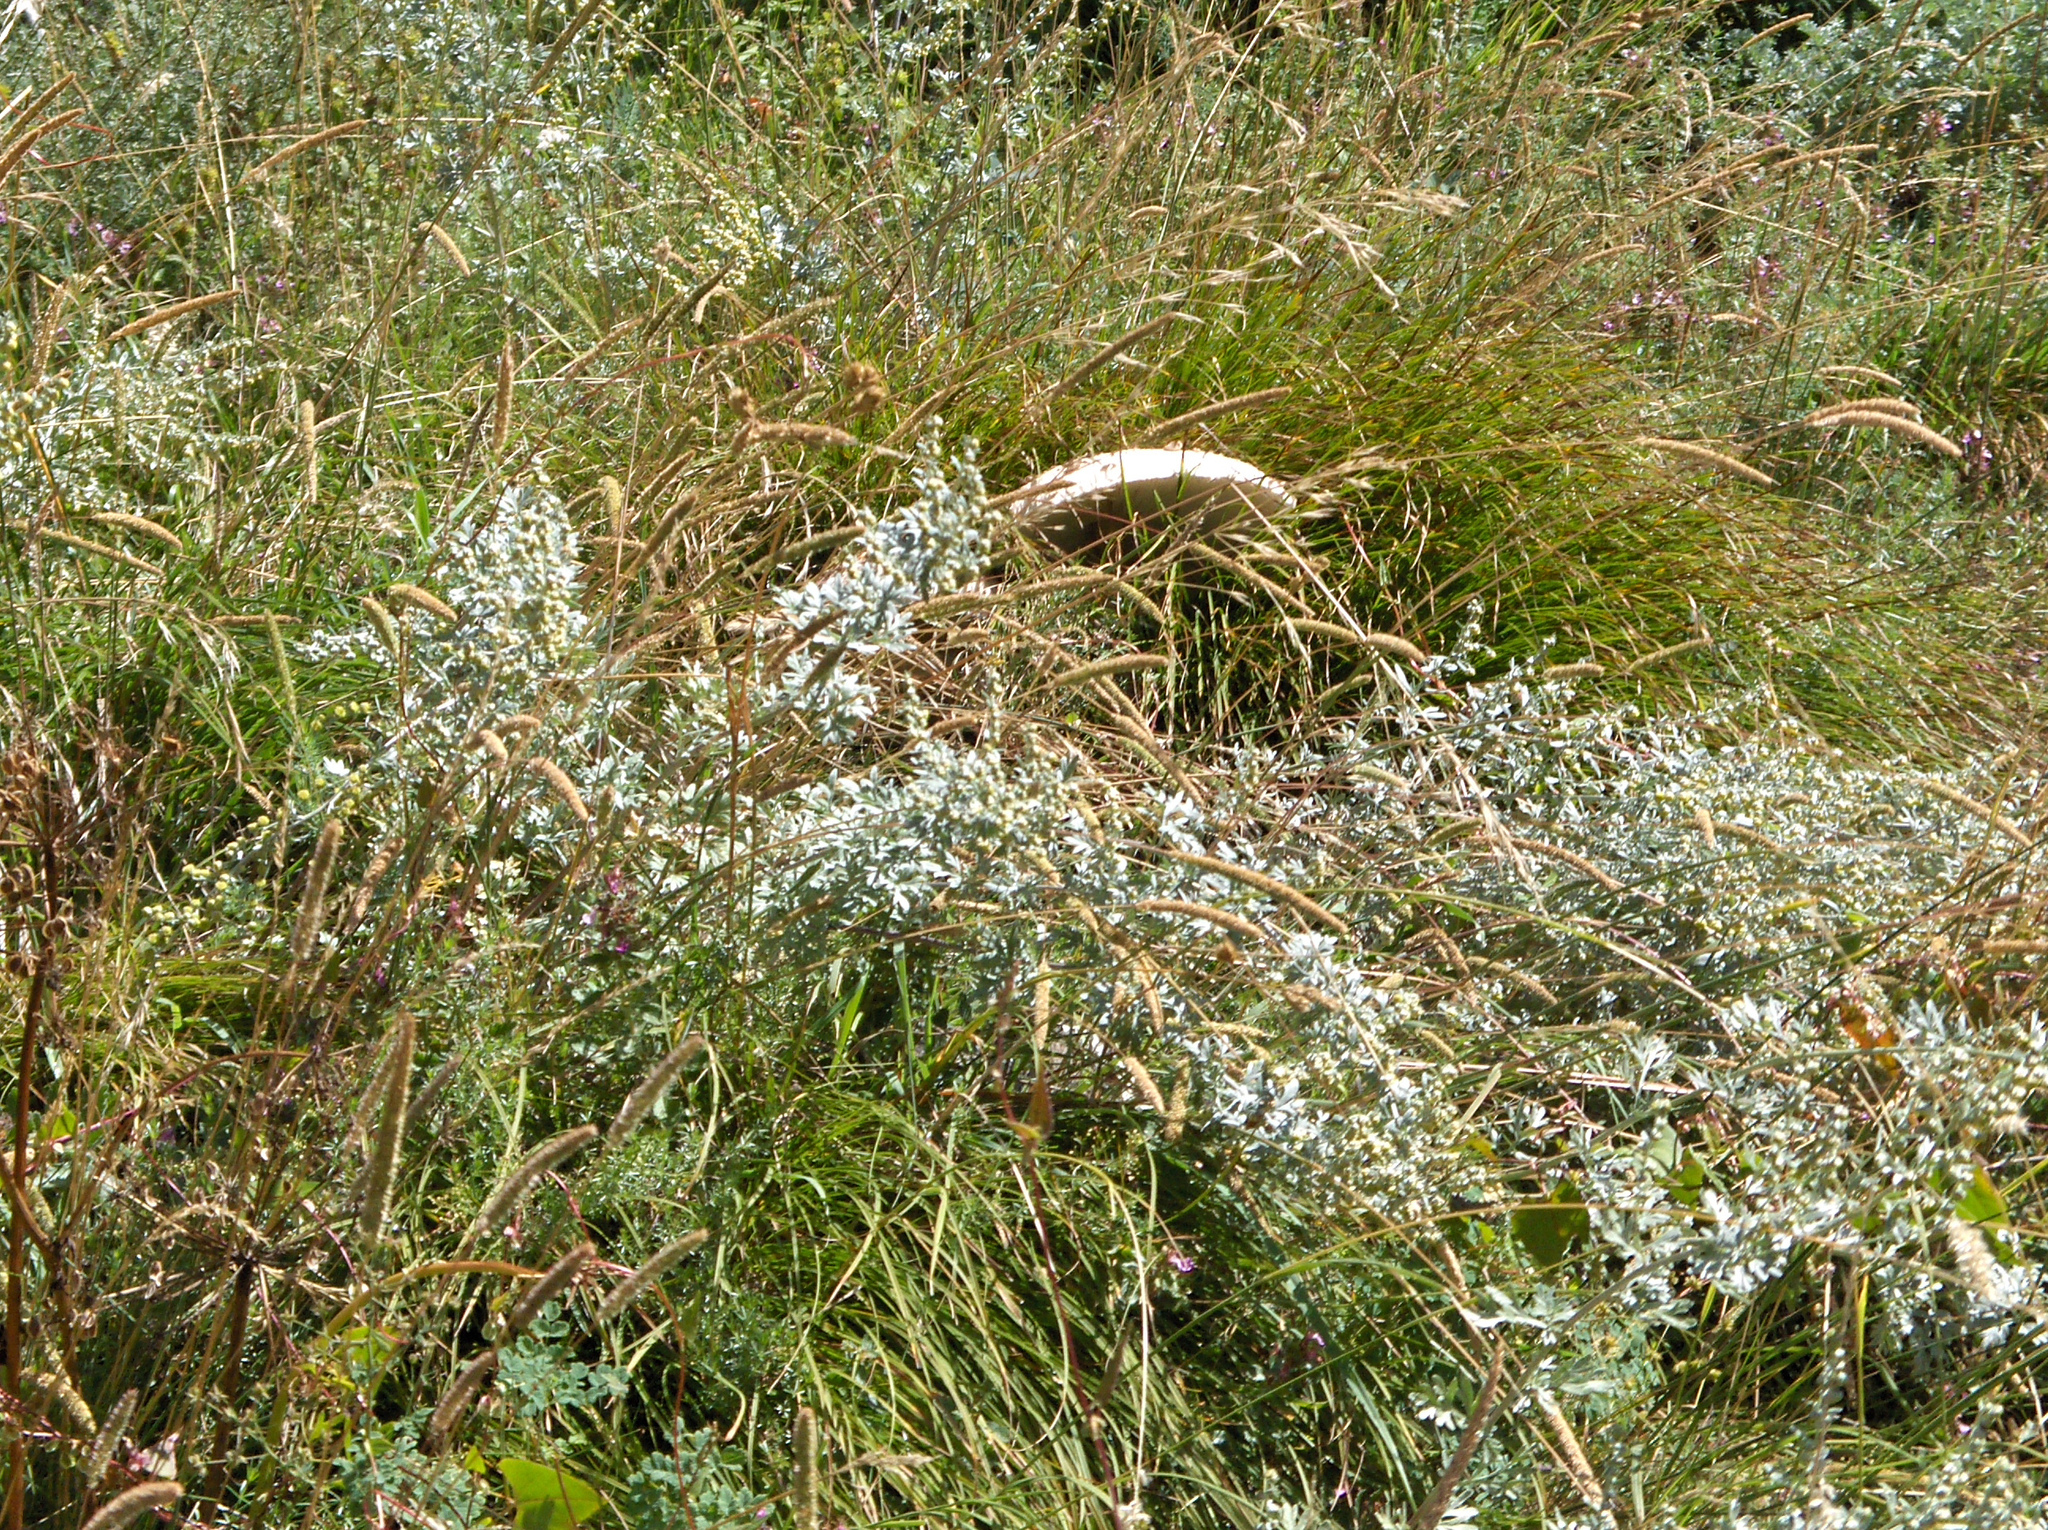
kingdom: Fungi
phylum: Basidiomycota
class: Agaricomycetes
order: Agaricales
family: Agaricaceae
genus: Macrolepiota
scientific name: Macrolepiota procera
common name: Parasol
